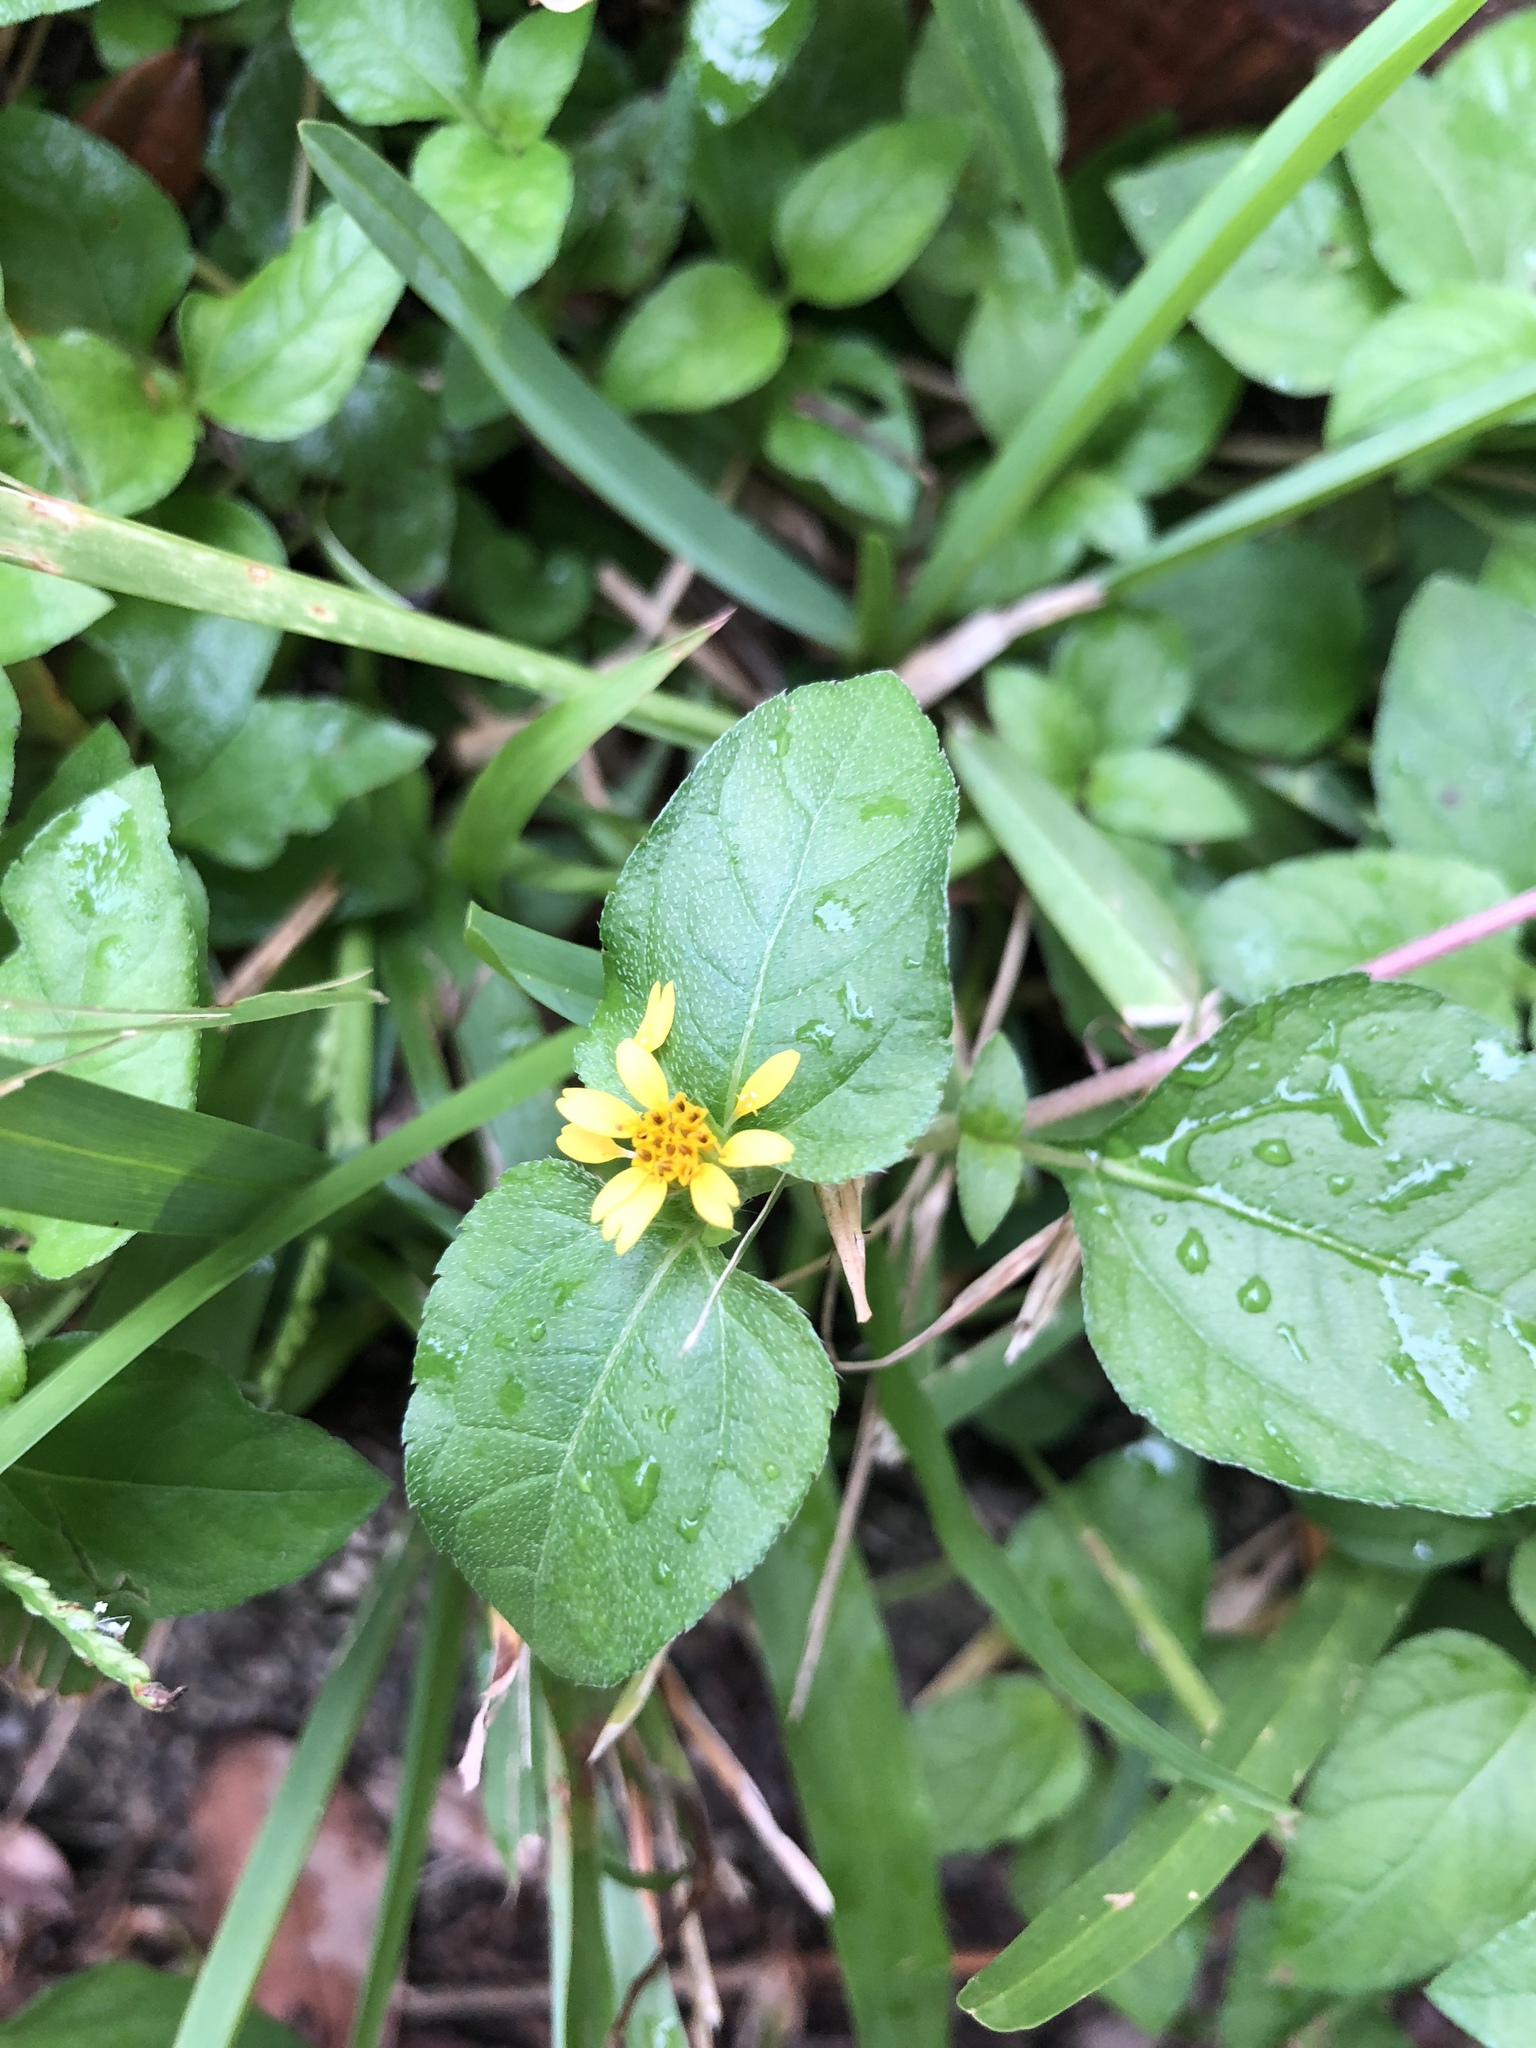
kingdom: Plantae
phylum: Tracheophyta
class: Magnoliopsida
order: Asterales
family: Asteraceae
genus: Calyptocarpus
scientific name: Calyptocarpus vialis
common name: Straggler daisy
